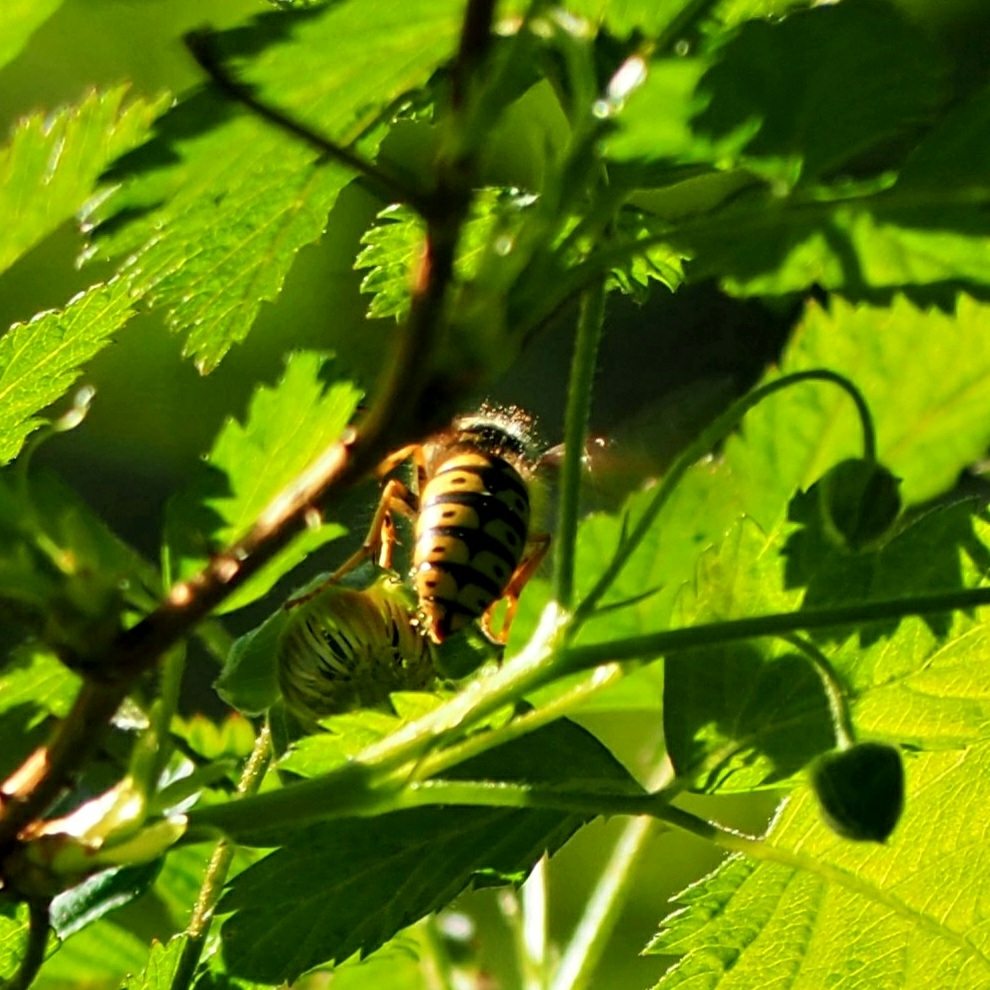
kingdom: Animalia
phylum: Arthropoda
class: Insecta
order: Hymenoptera
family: Vespidae
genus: Dolichovespula
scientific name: Dolichovespula arenaria
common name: Aerial yellowjacket
